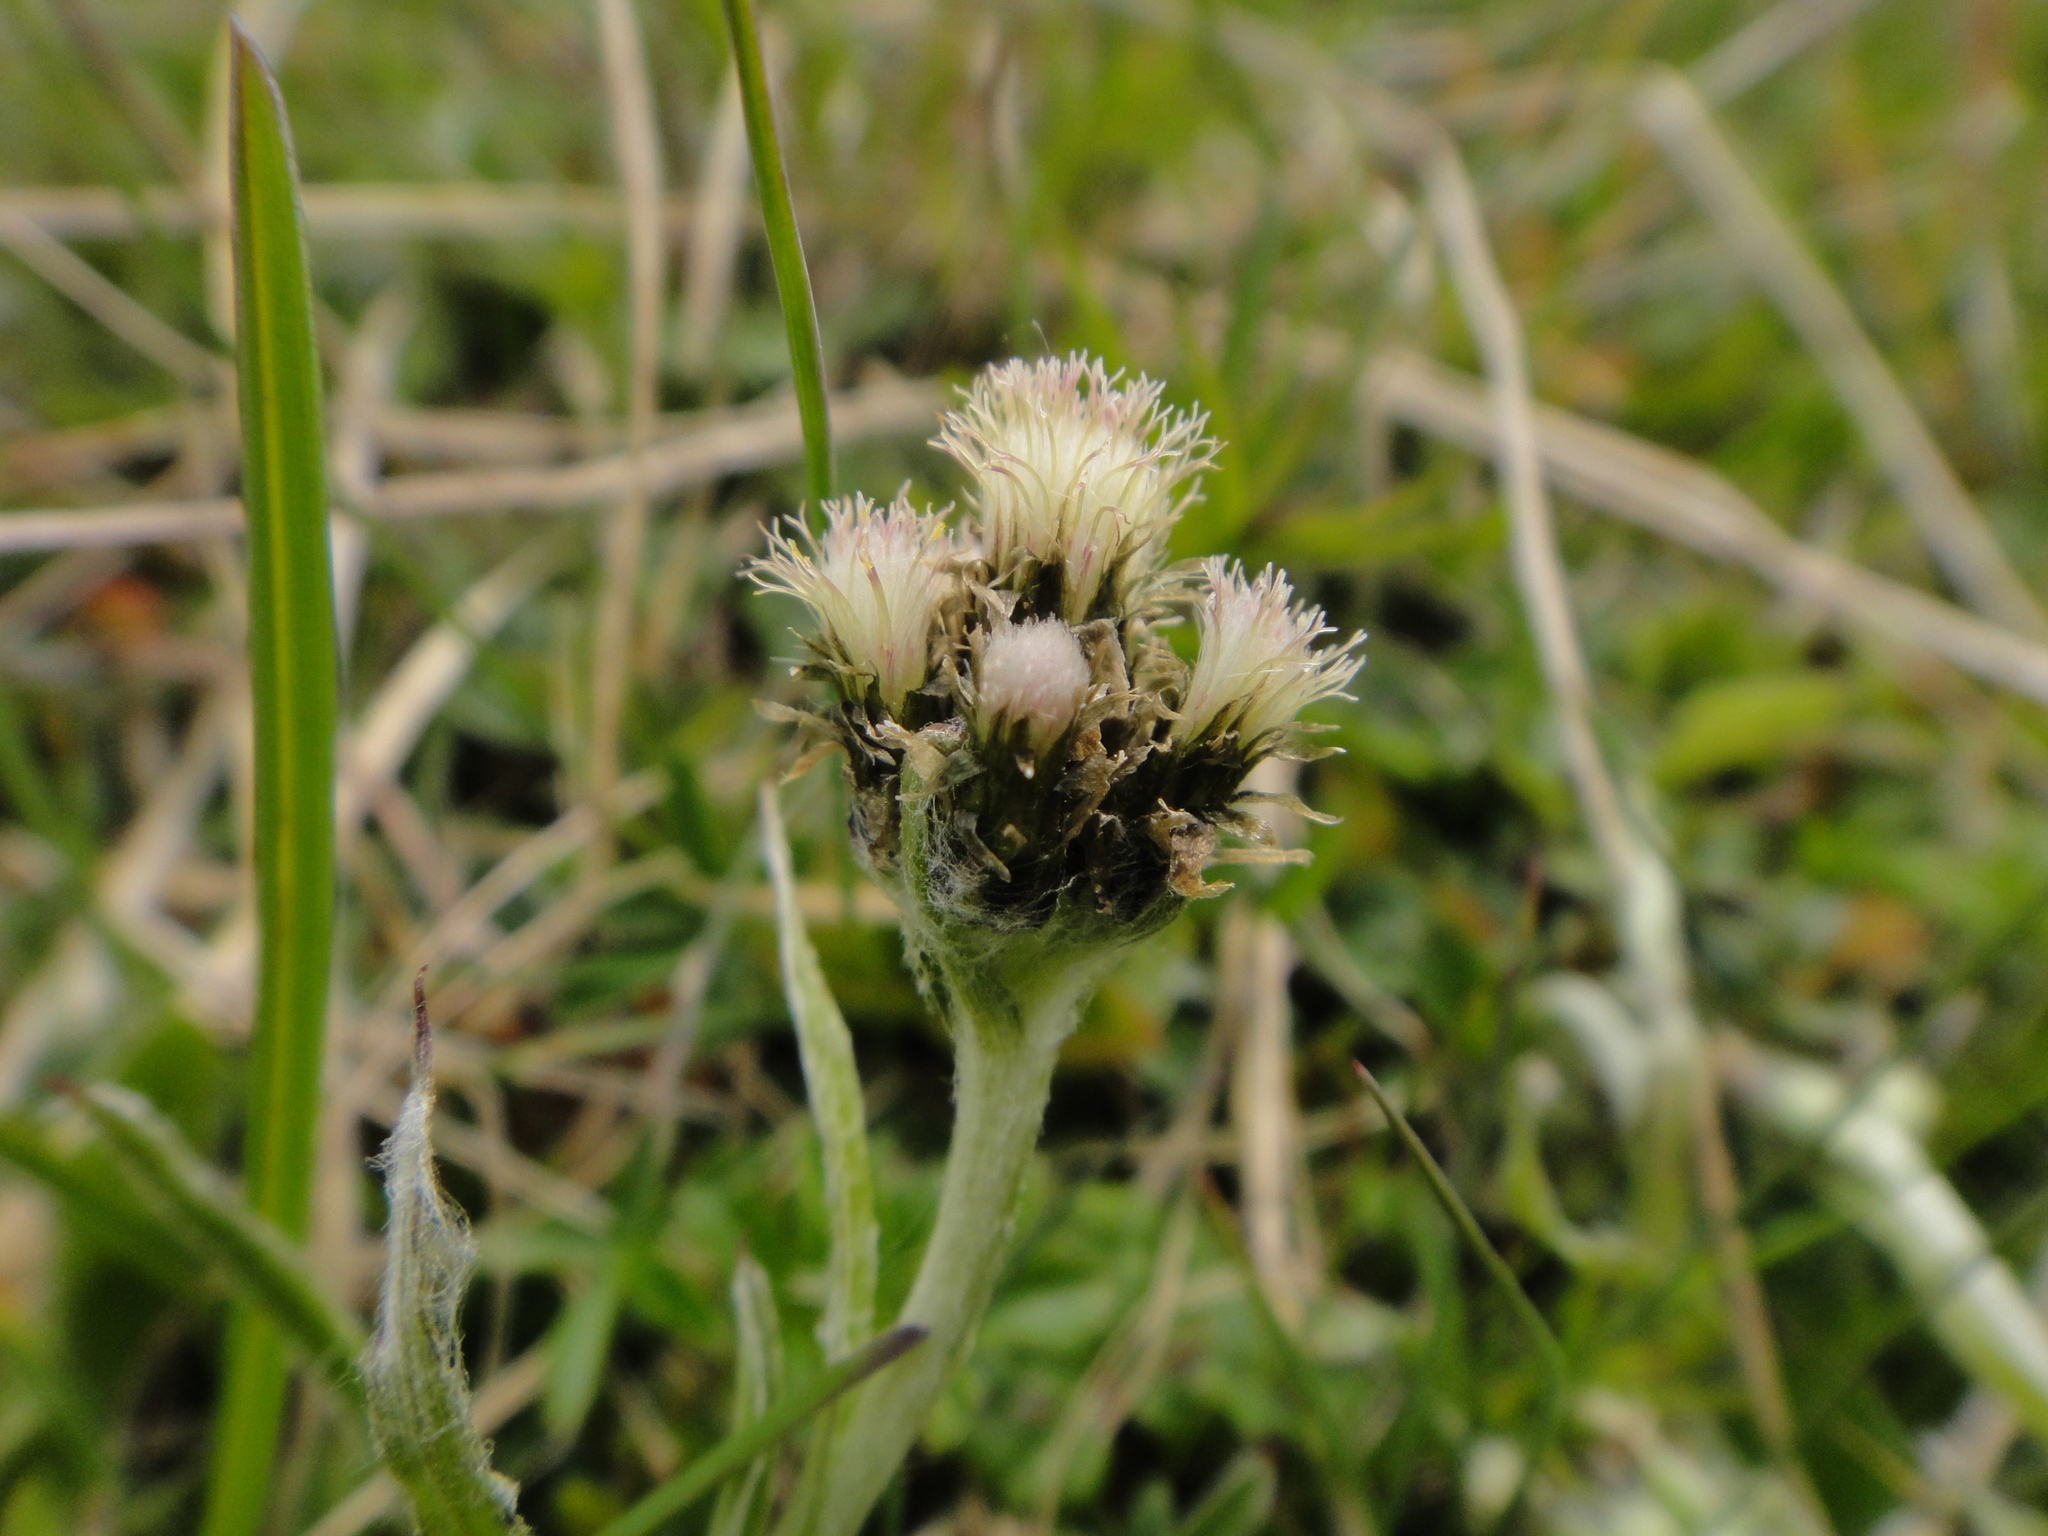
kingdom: Plantae
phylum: Tracheophyta
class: Magnoliopsida
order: Asterales
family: Asteraceae
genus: Antennaria
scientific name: Antennaria carpatica
